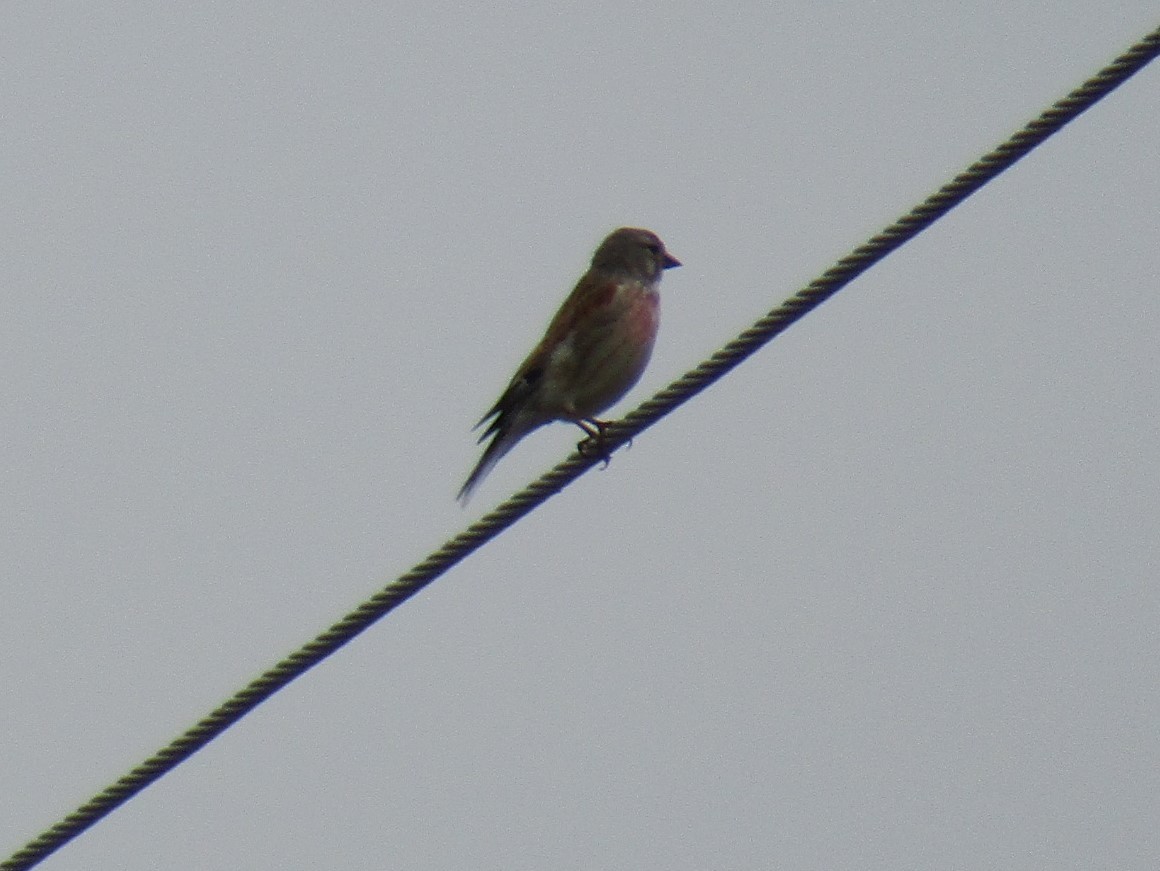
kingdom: Animalia
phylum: Chordata
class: Aves
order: Passeriformes
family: Fringillidae
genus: Linaria
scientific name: Linaria cannabina
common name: Common linnet
